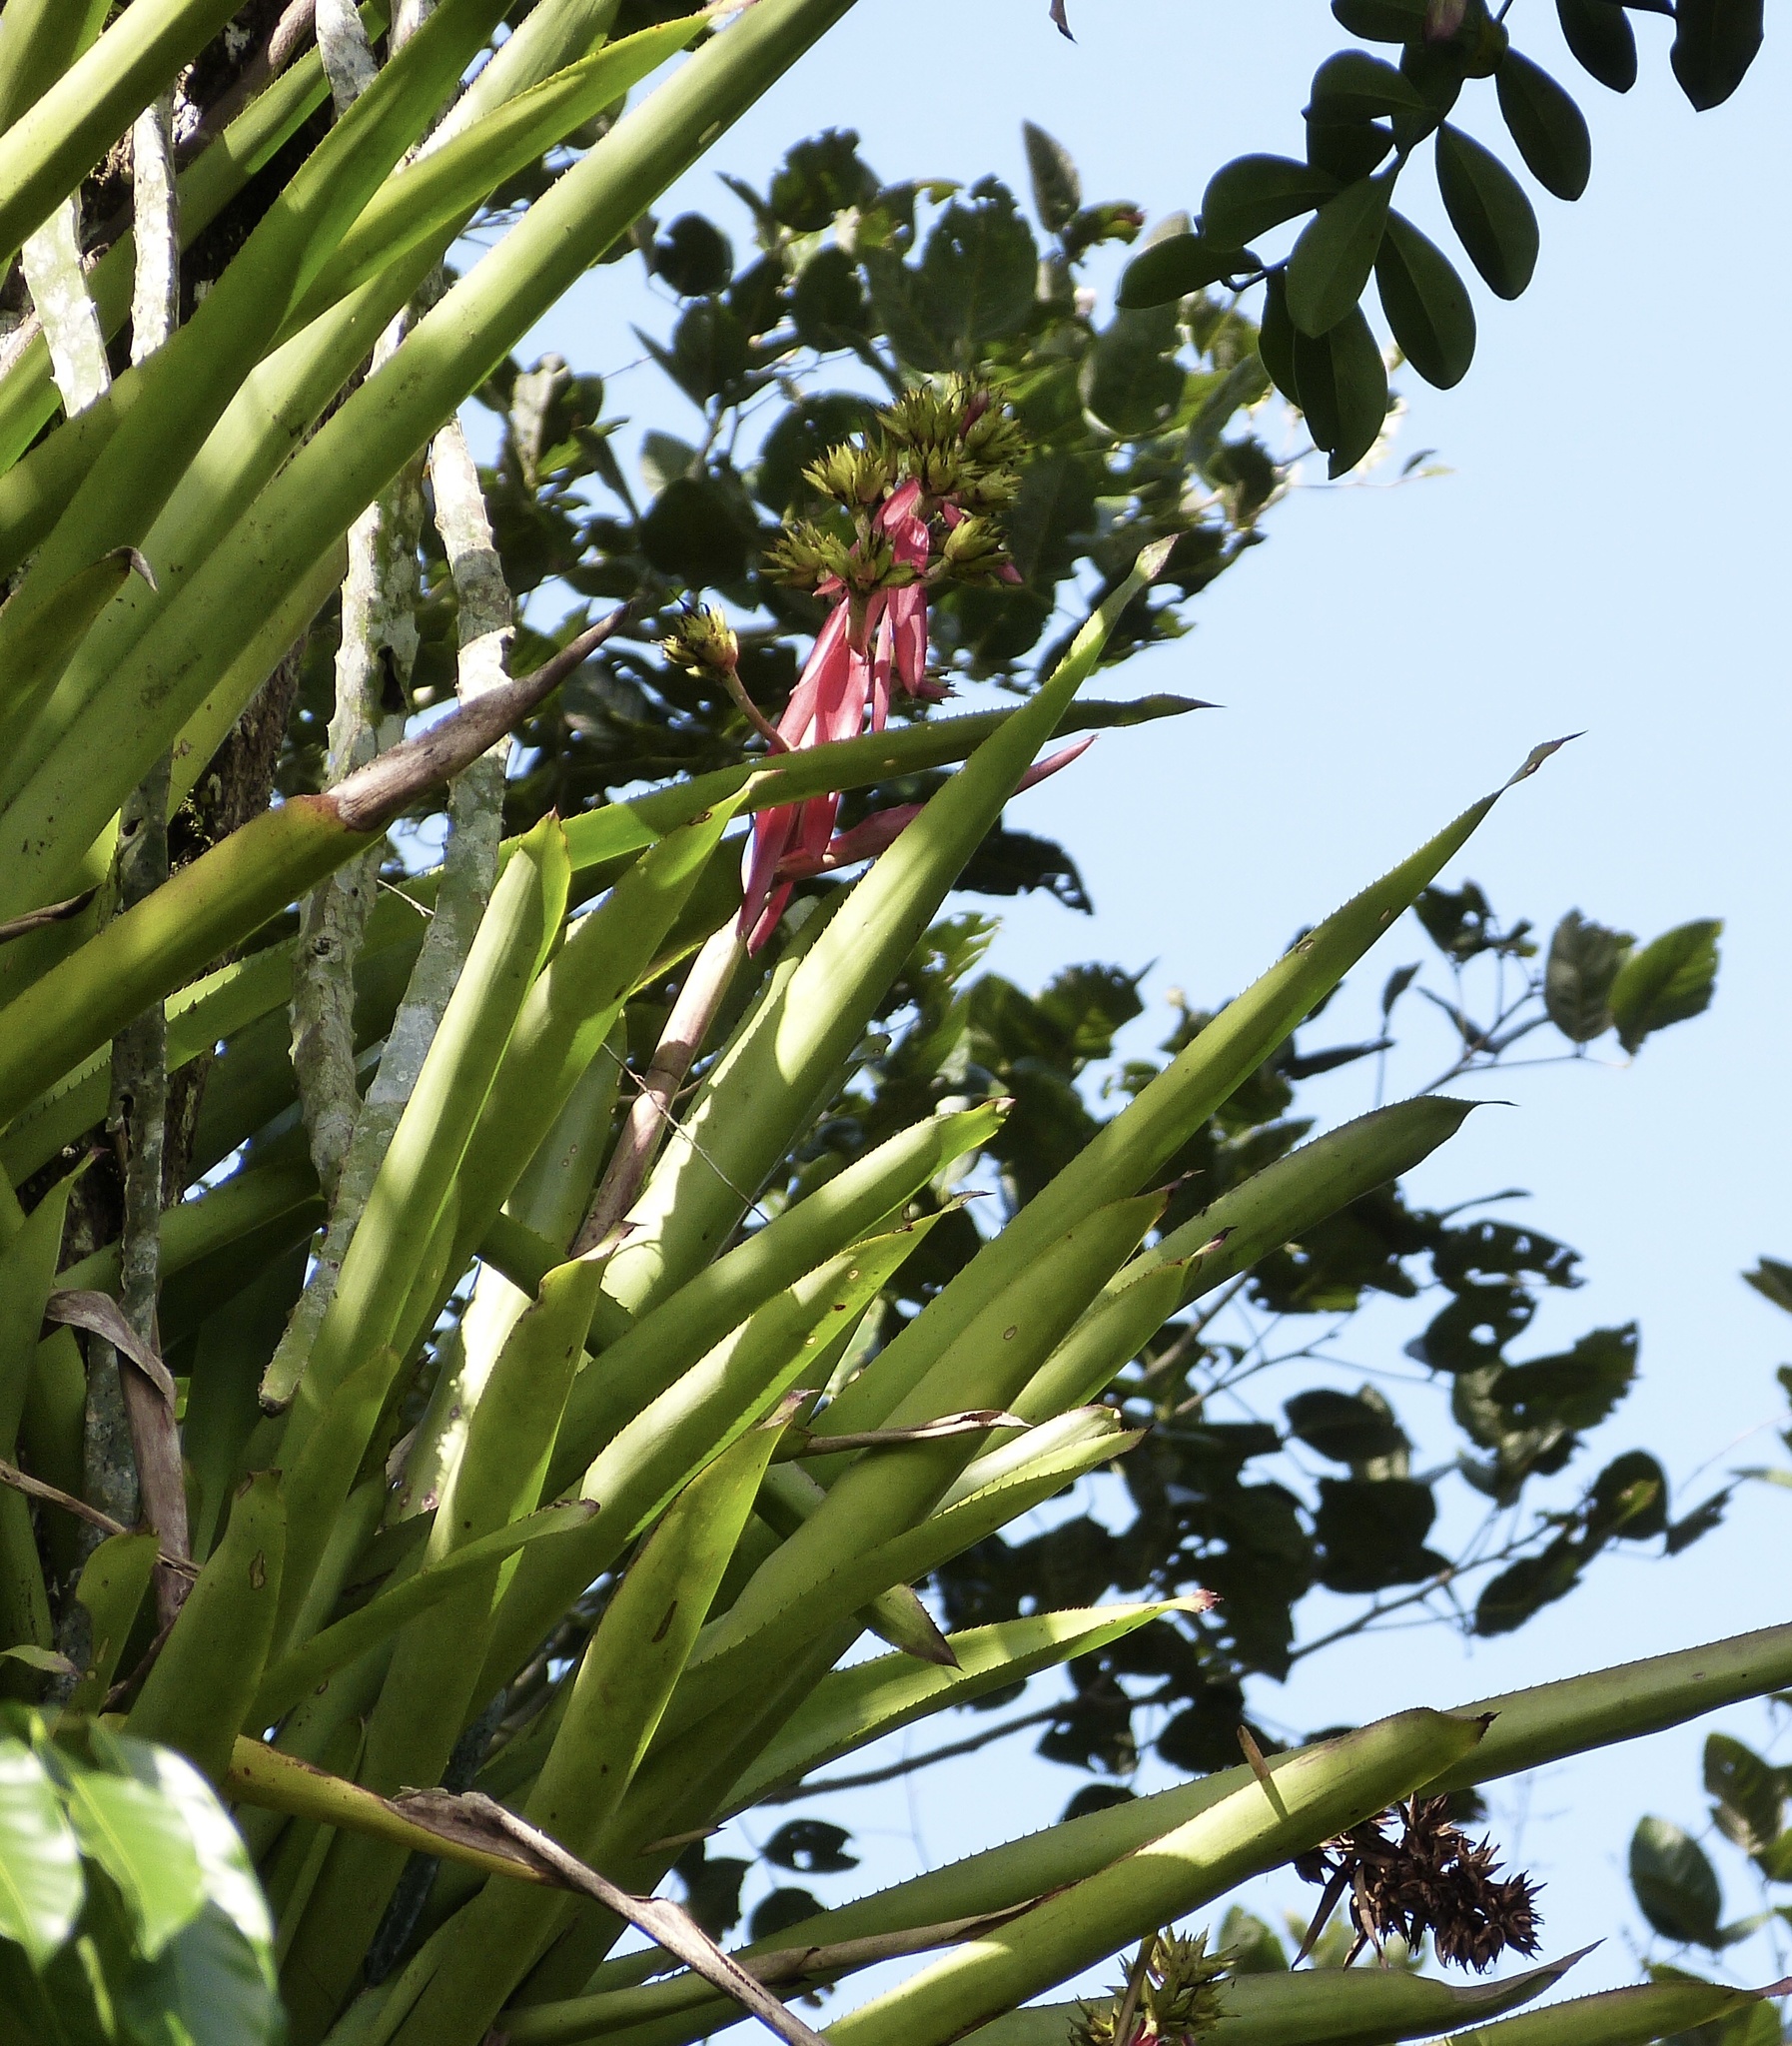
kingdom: Plantae
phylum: Tracheophyta
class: Liliopsida
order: Poales
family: Bromeliaceae
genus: Aechmea
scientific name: Aechmea aquilega
